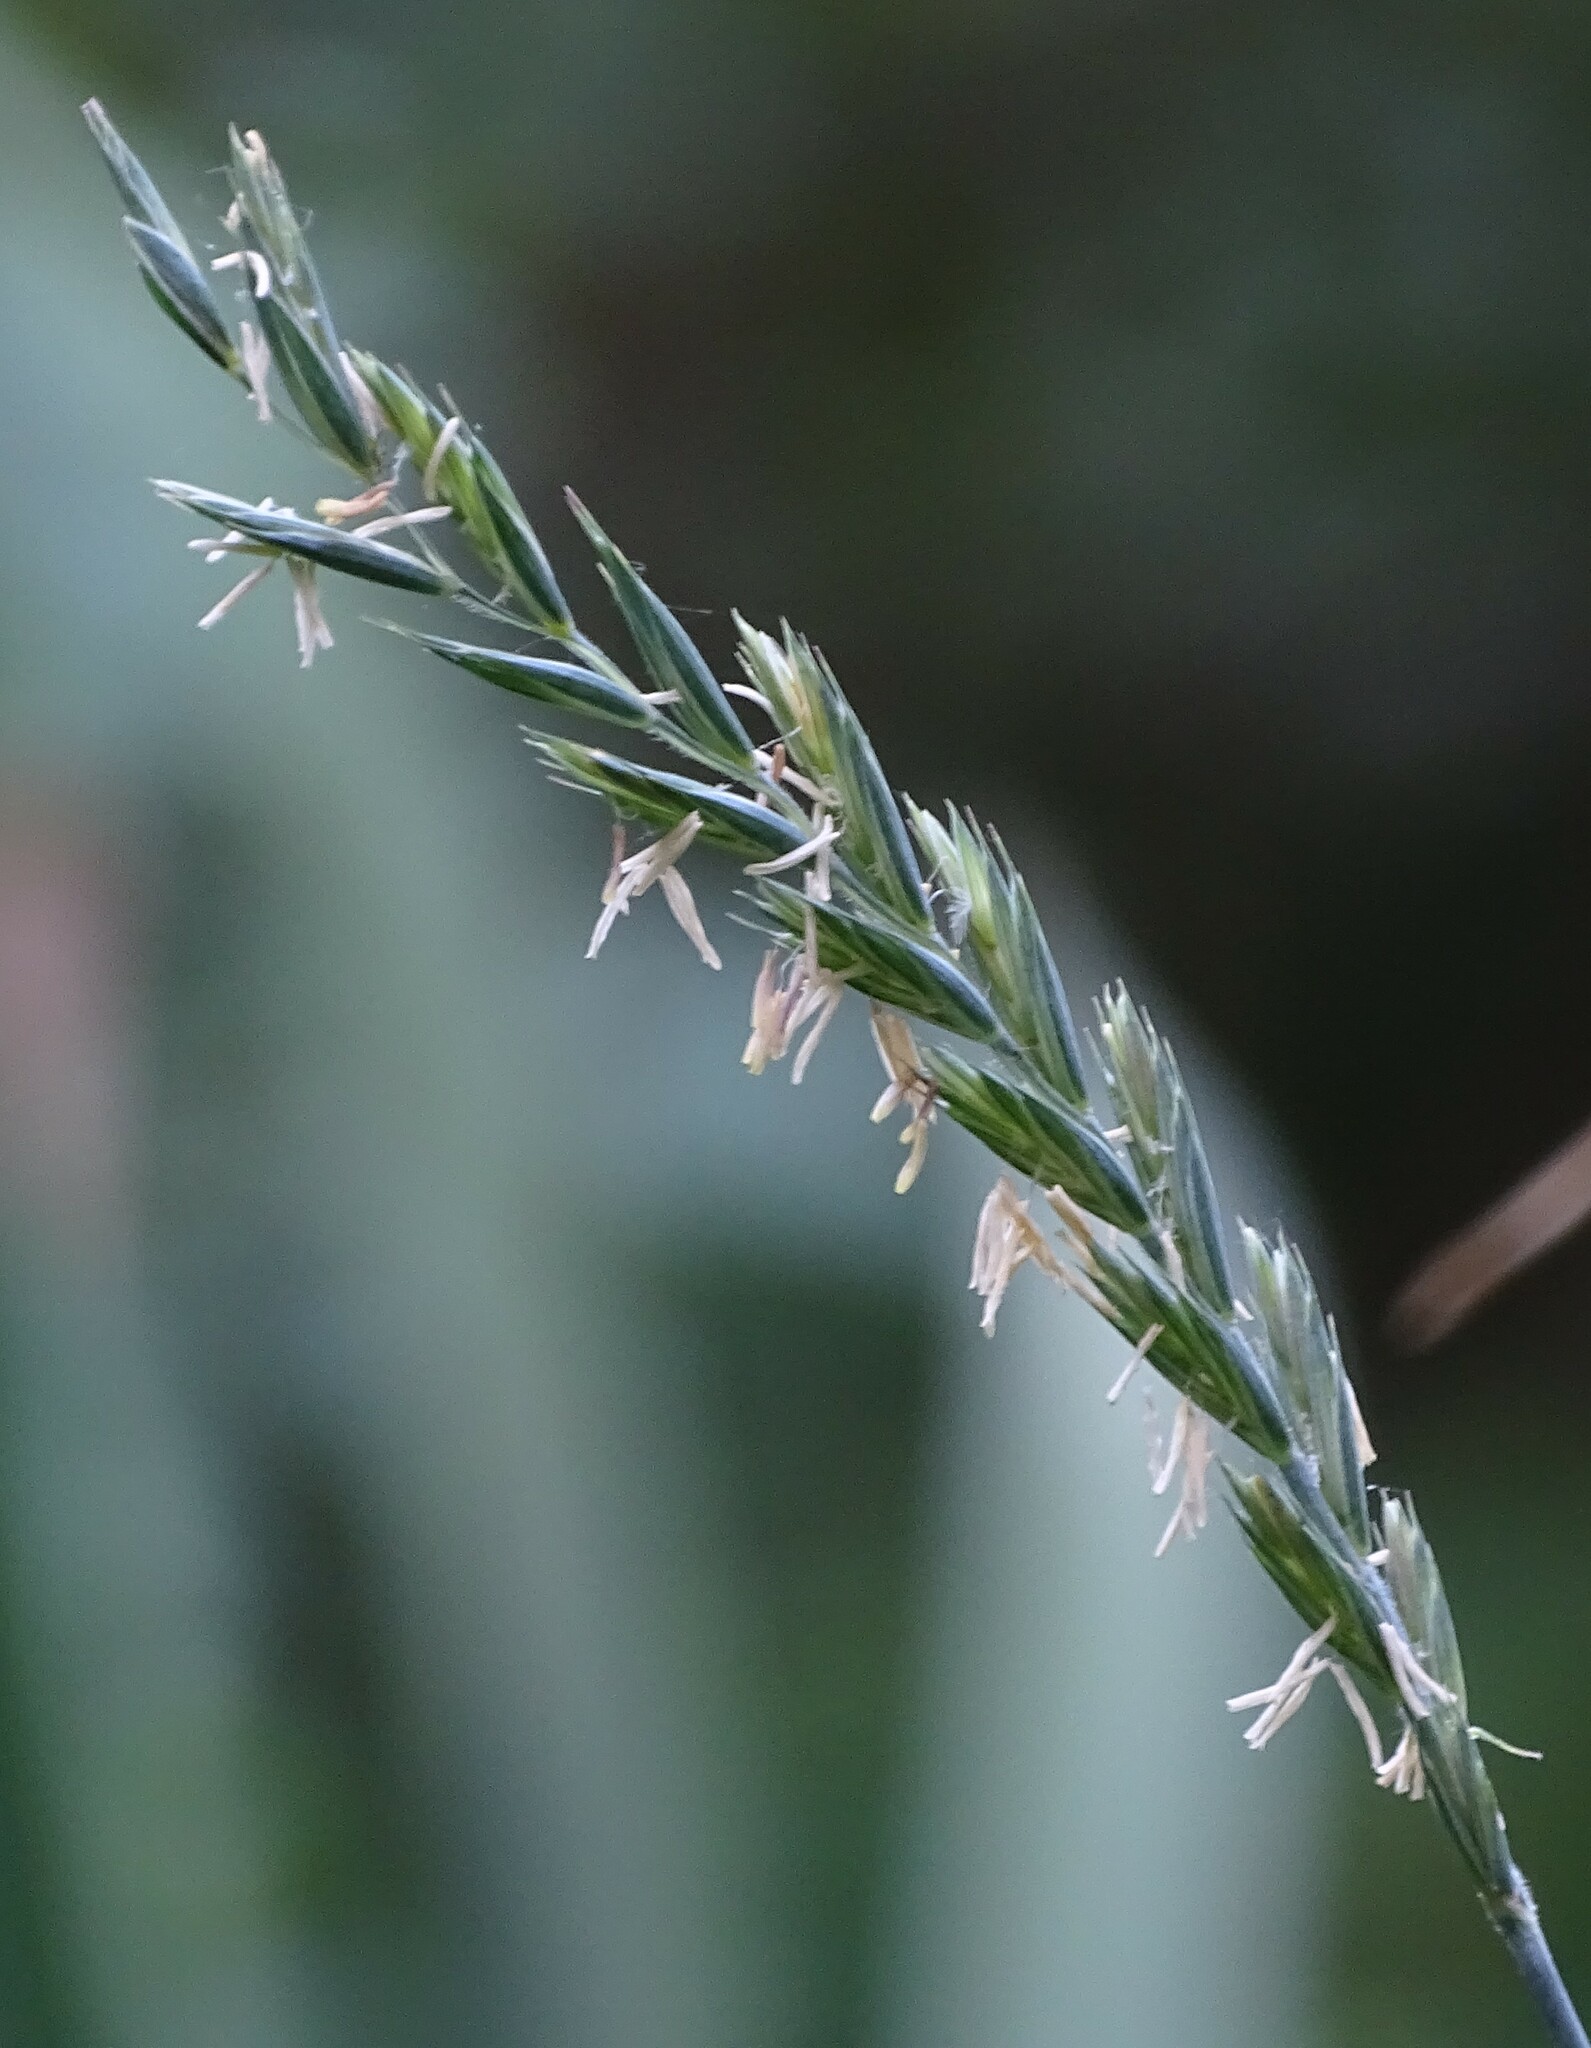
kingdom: Plantae
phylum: Tracheophyta
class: Liliopsida
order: Poales
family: Poaceae
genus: Elymus
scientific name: Elymus repens
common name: Quackgrass
